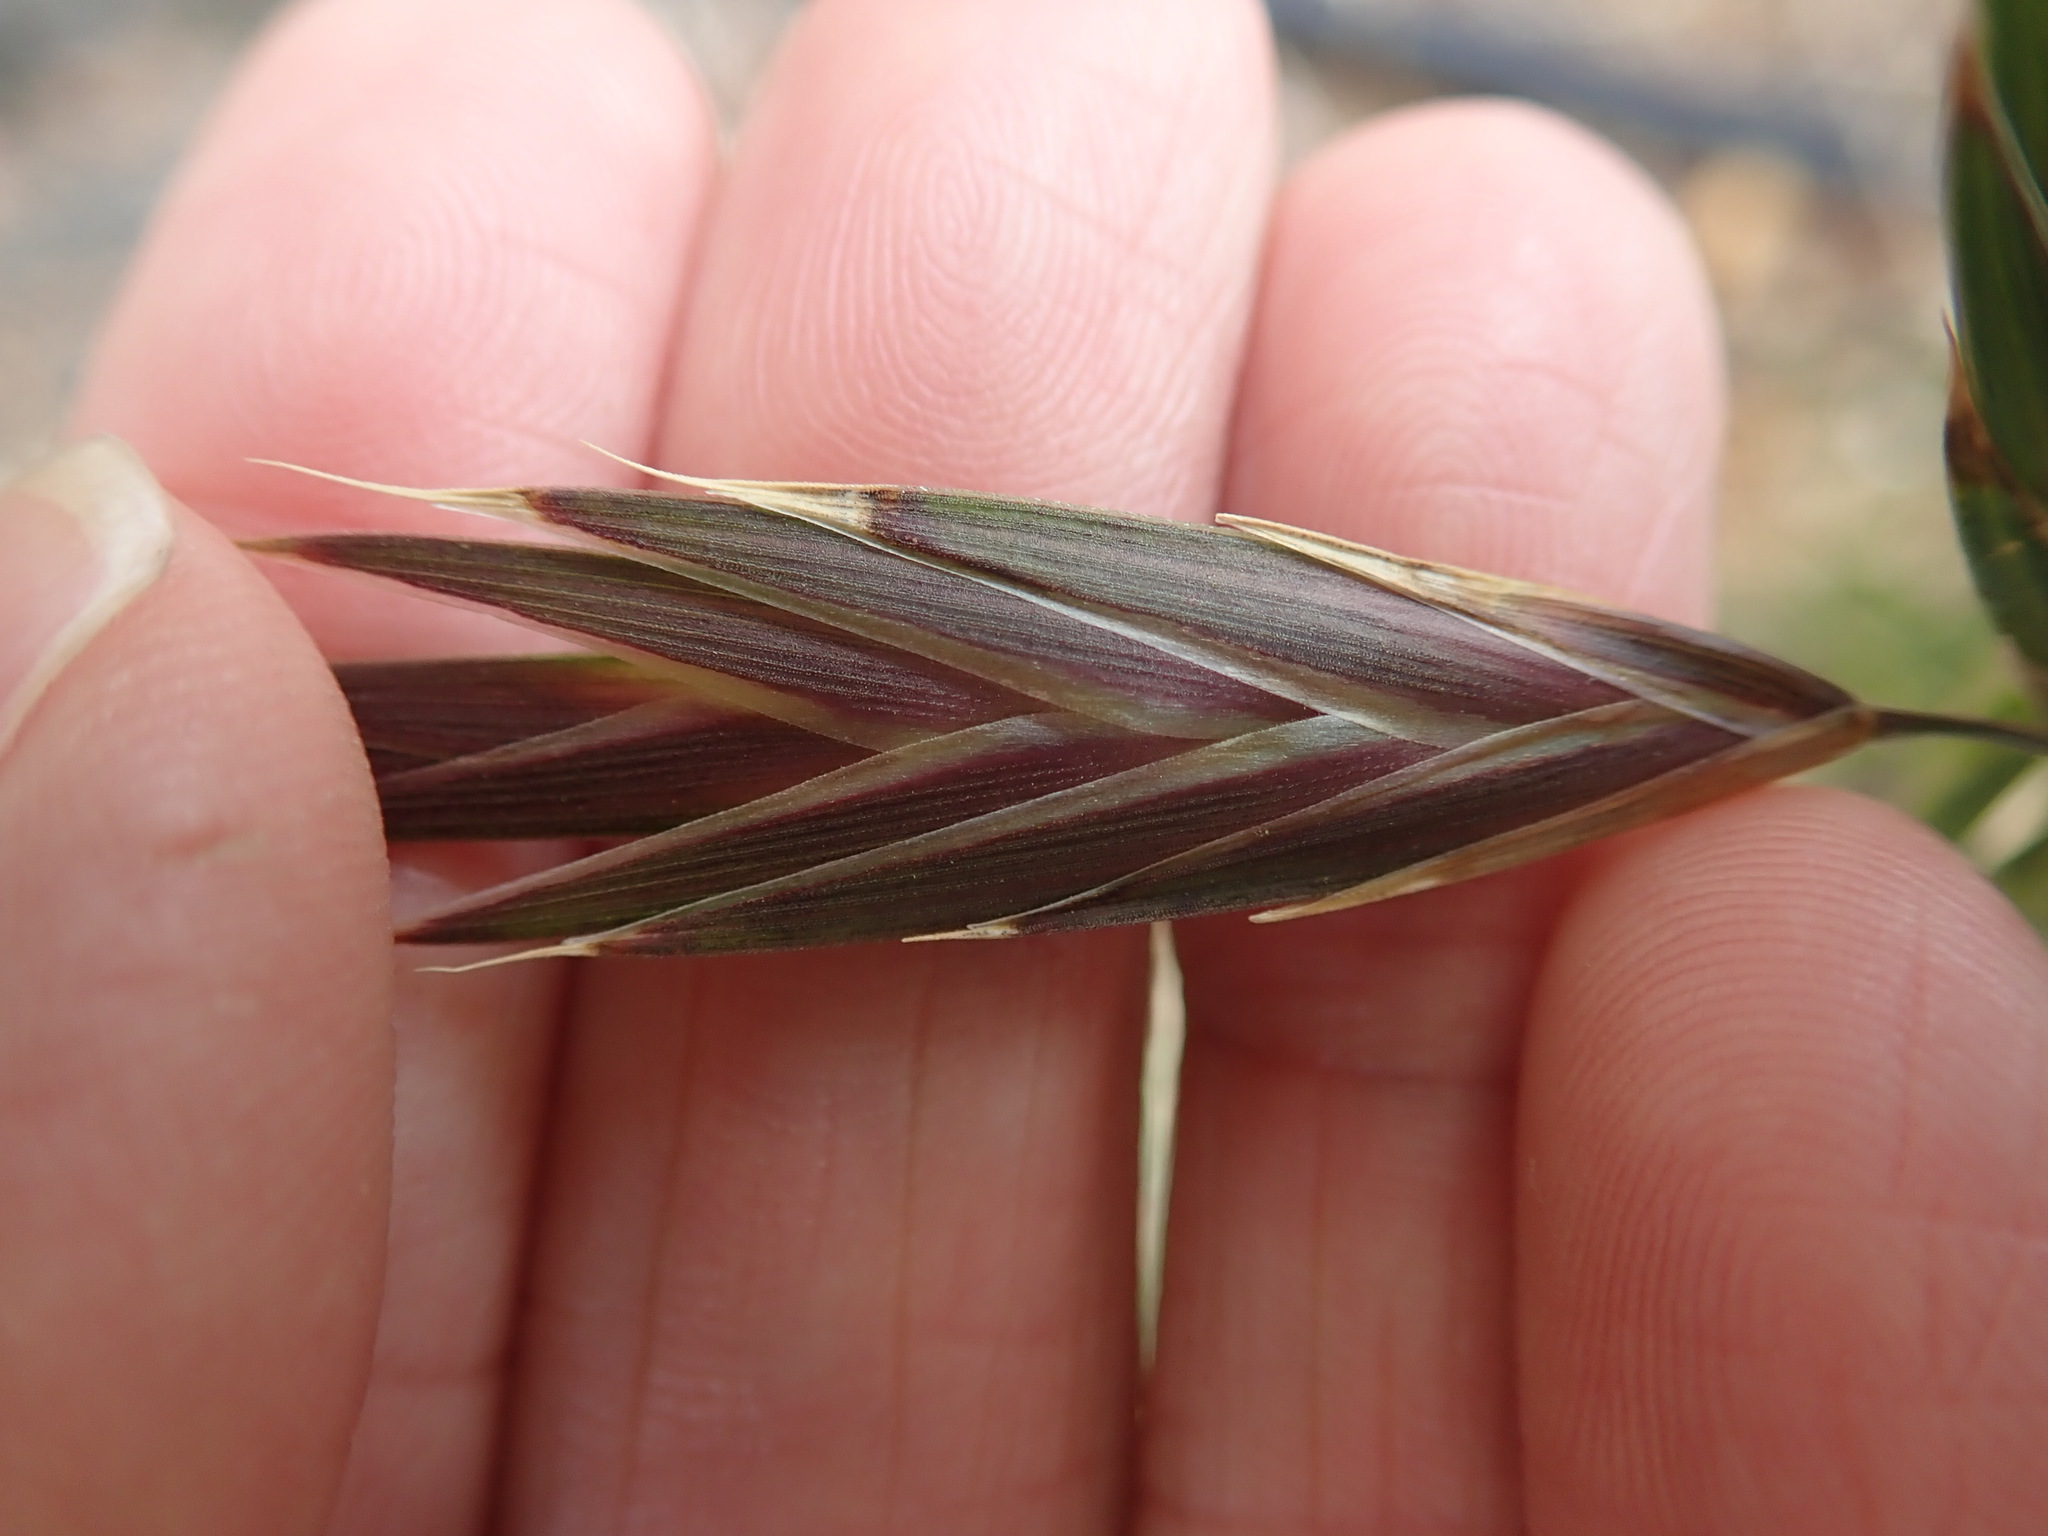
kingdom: Plantae
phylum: Tracheophyta
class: Liliopsida
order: Poales
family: Poaceae
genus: Bromus
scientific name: Bromus catharticus
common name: Rescuegrass
